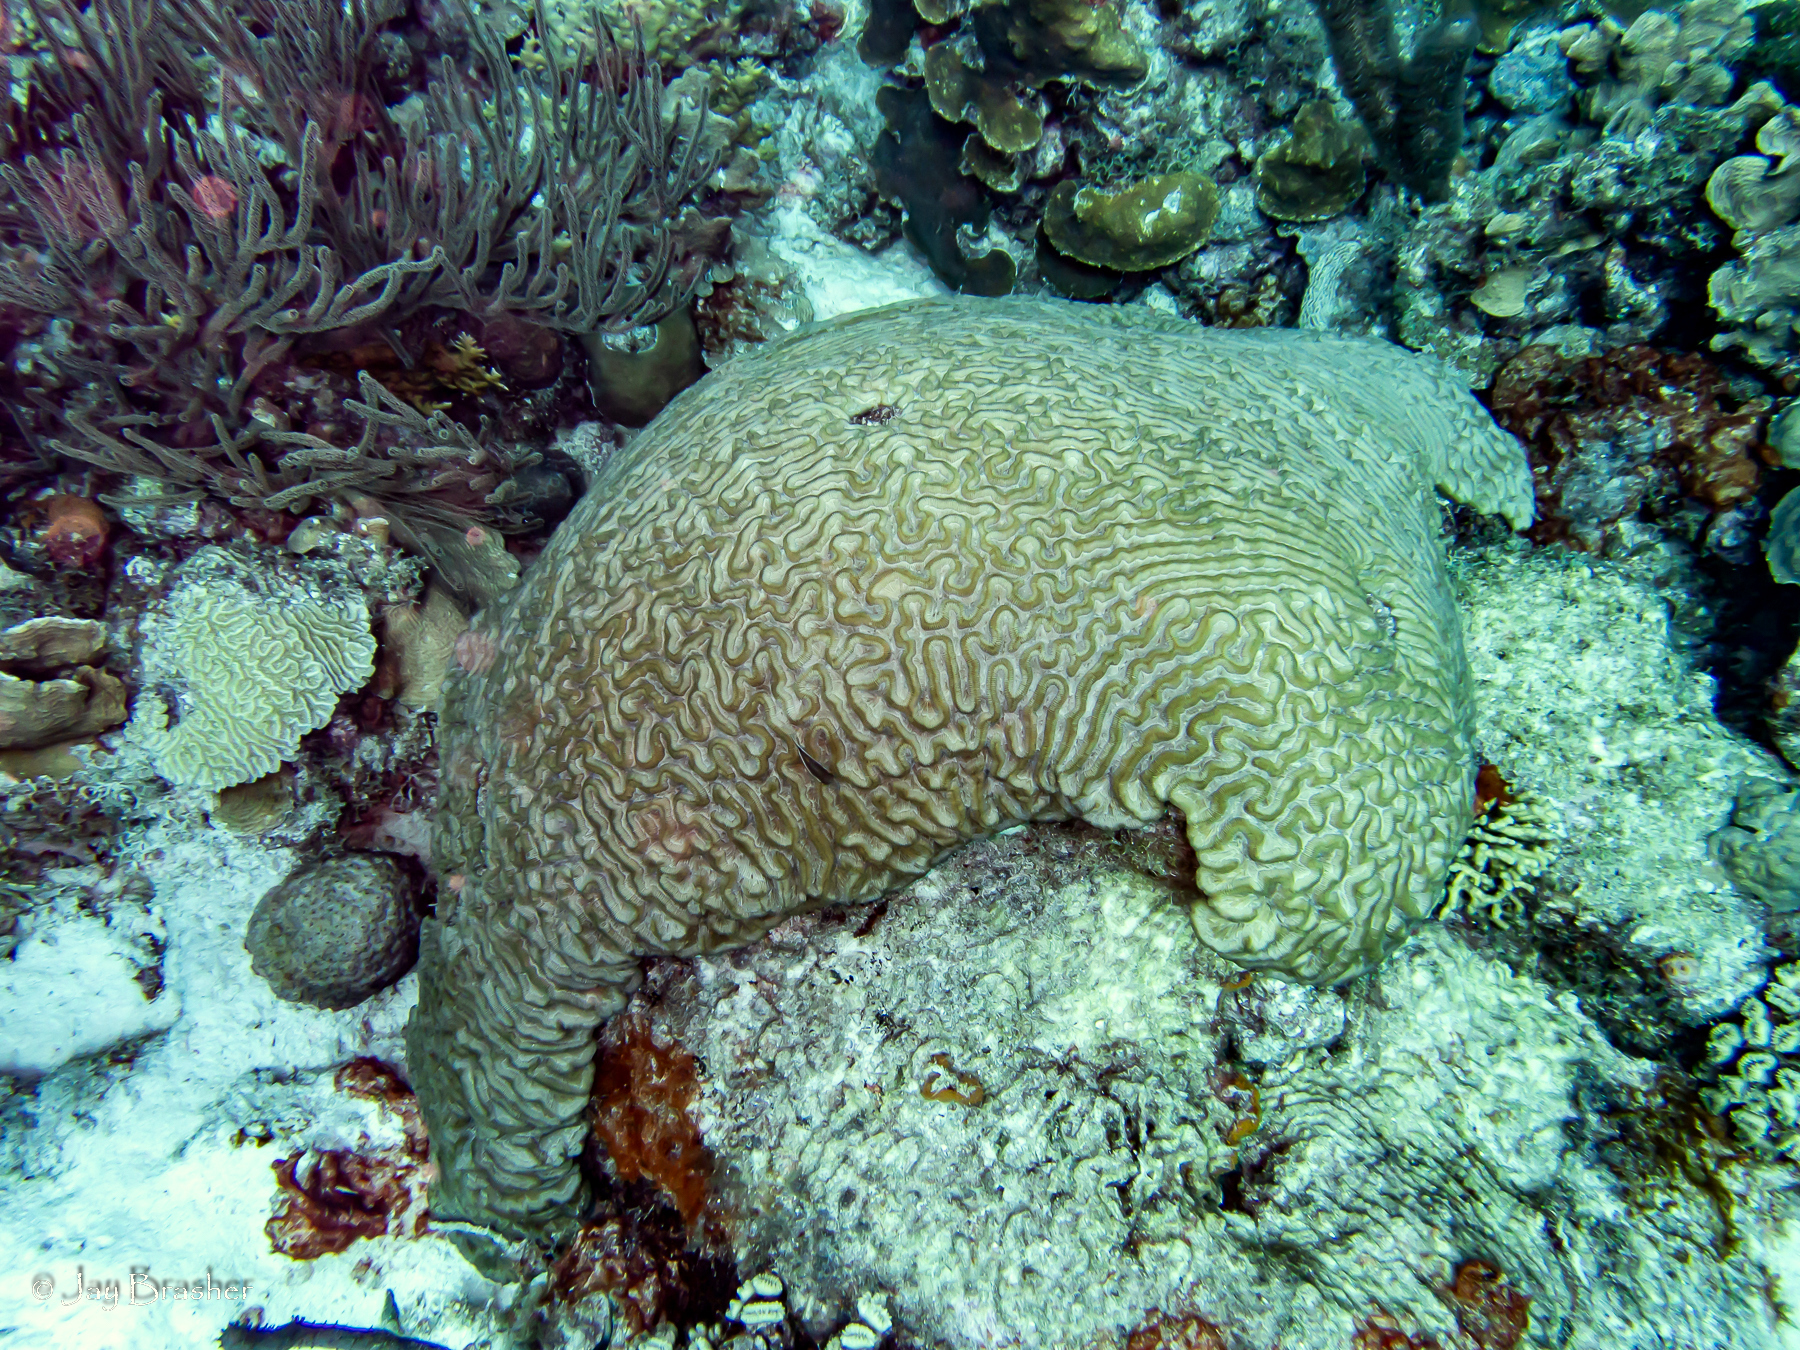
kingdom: Animalia
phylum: Cnidaria
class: Anthozoa
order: Malacalcyonacea
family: Plexauridae
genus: Plexaura
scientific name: Plexaura homomalla
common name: Black sea rod
